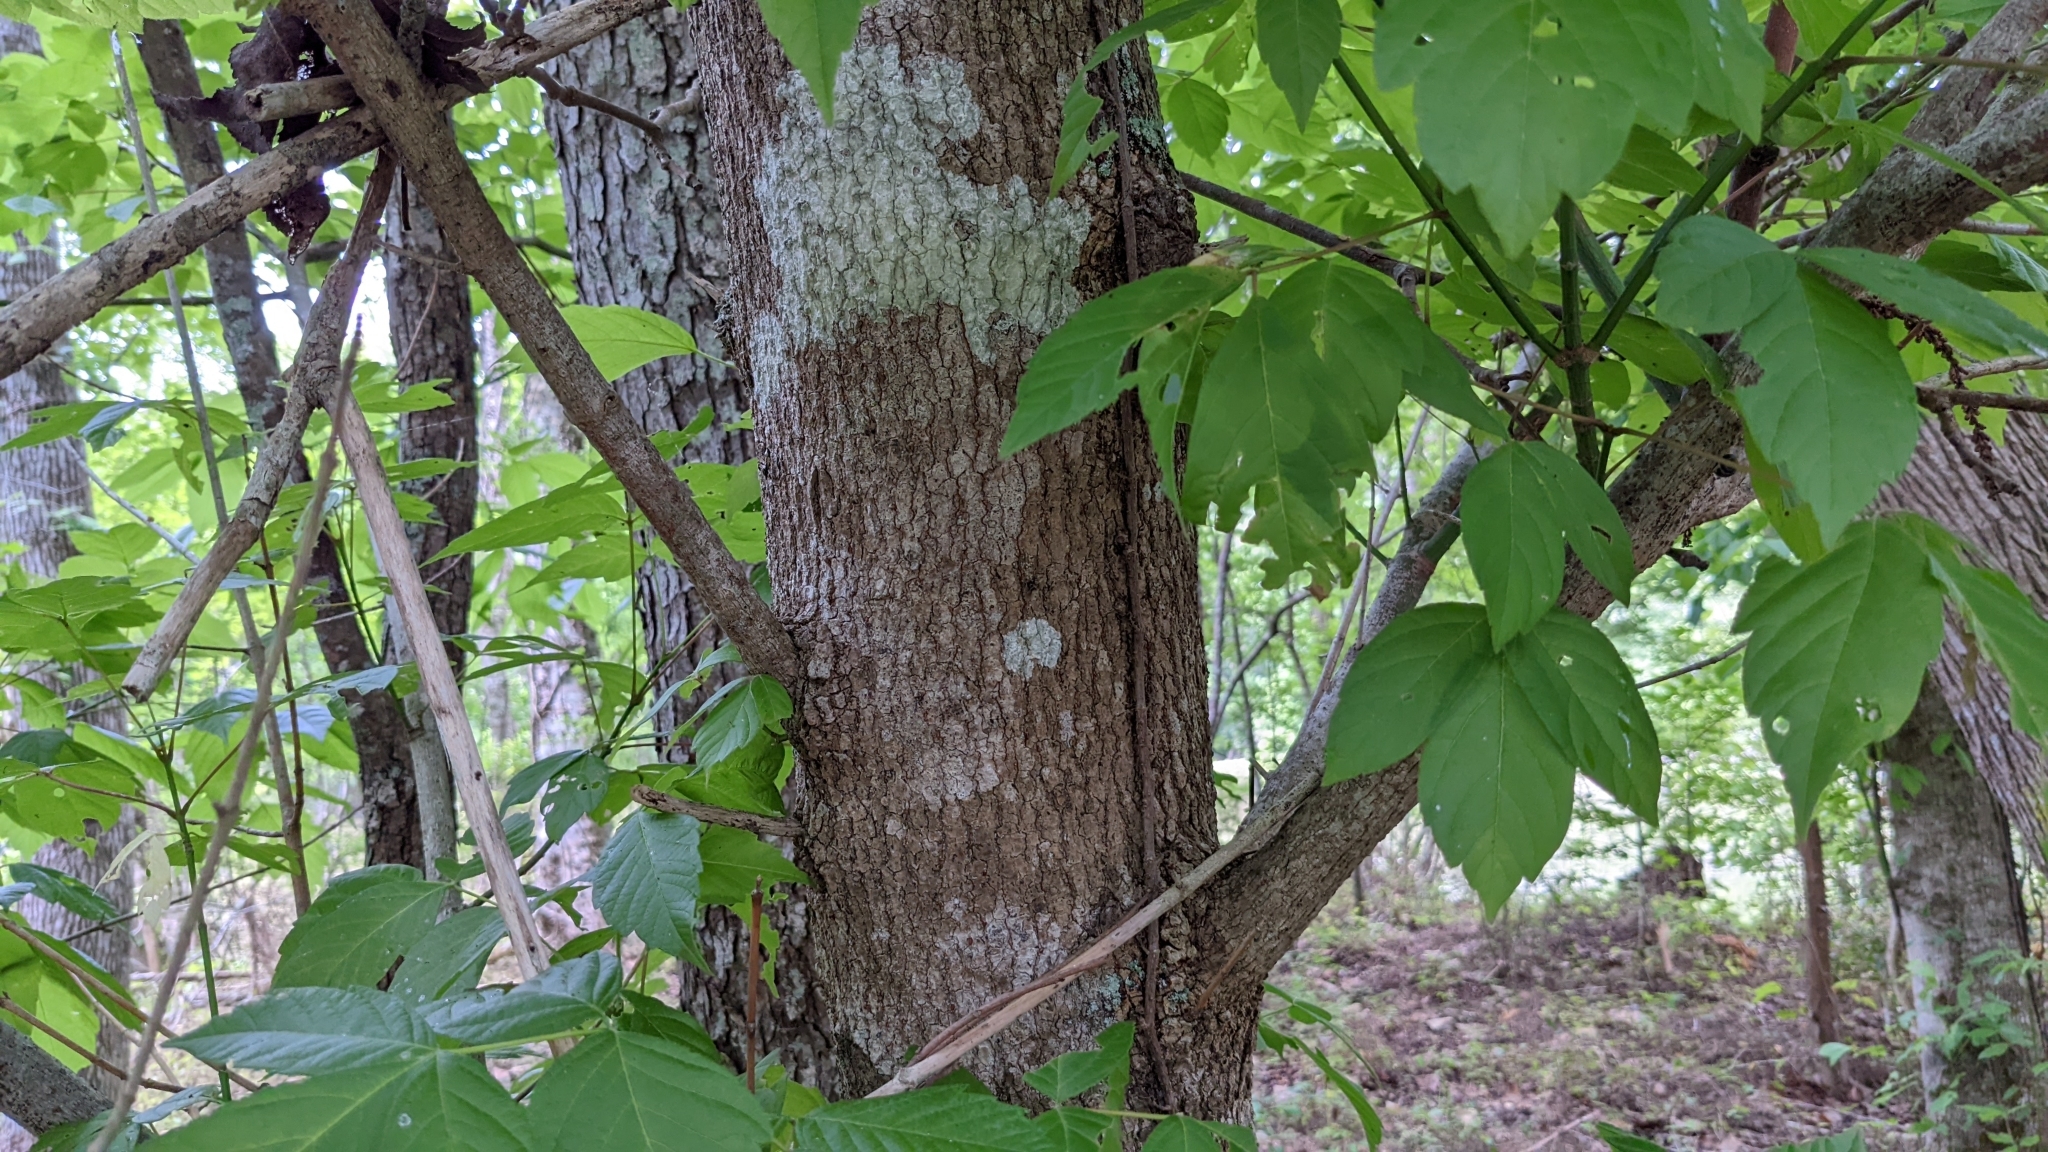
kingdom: Plantae
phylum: Tracheophyta
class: Magnoliopsida
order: Sapindales
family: Sapindaceae
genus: Acer
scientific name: Acer negundo
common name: Ashleaf maple
